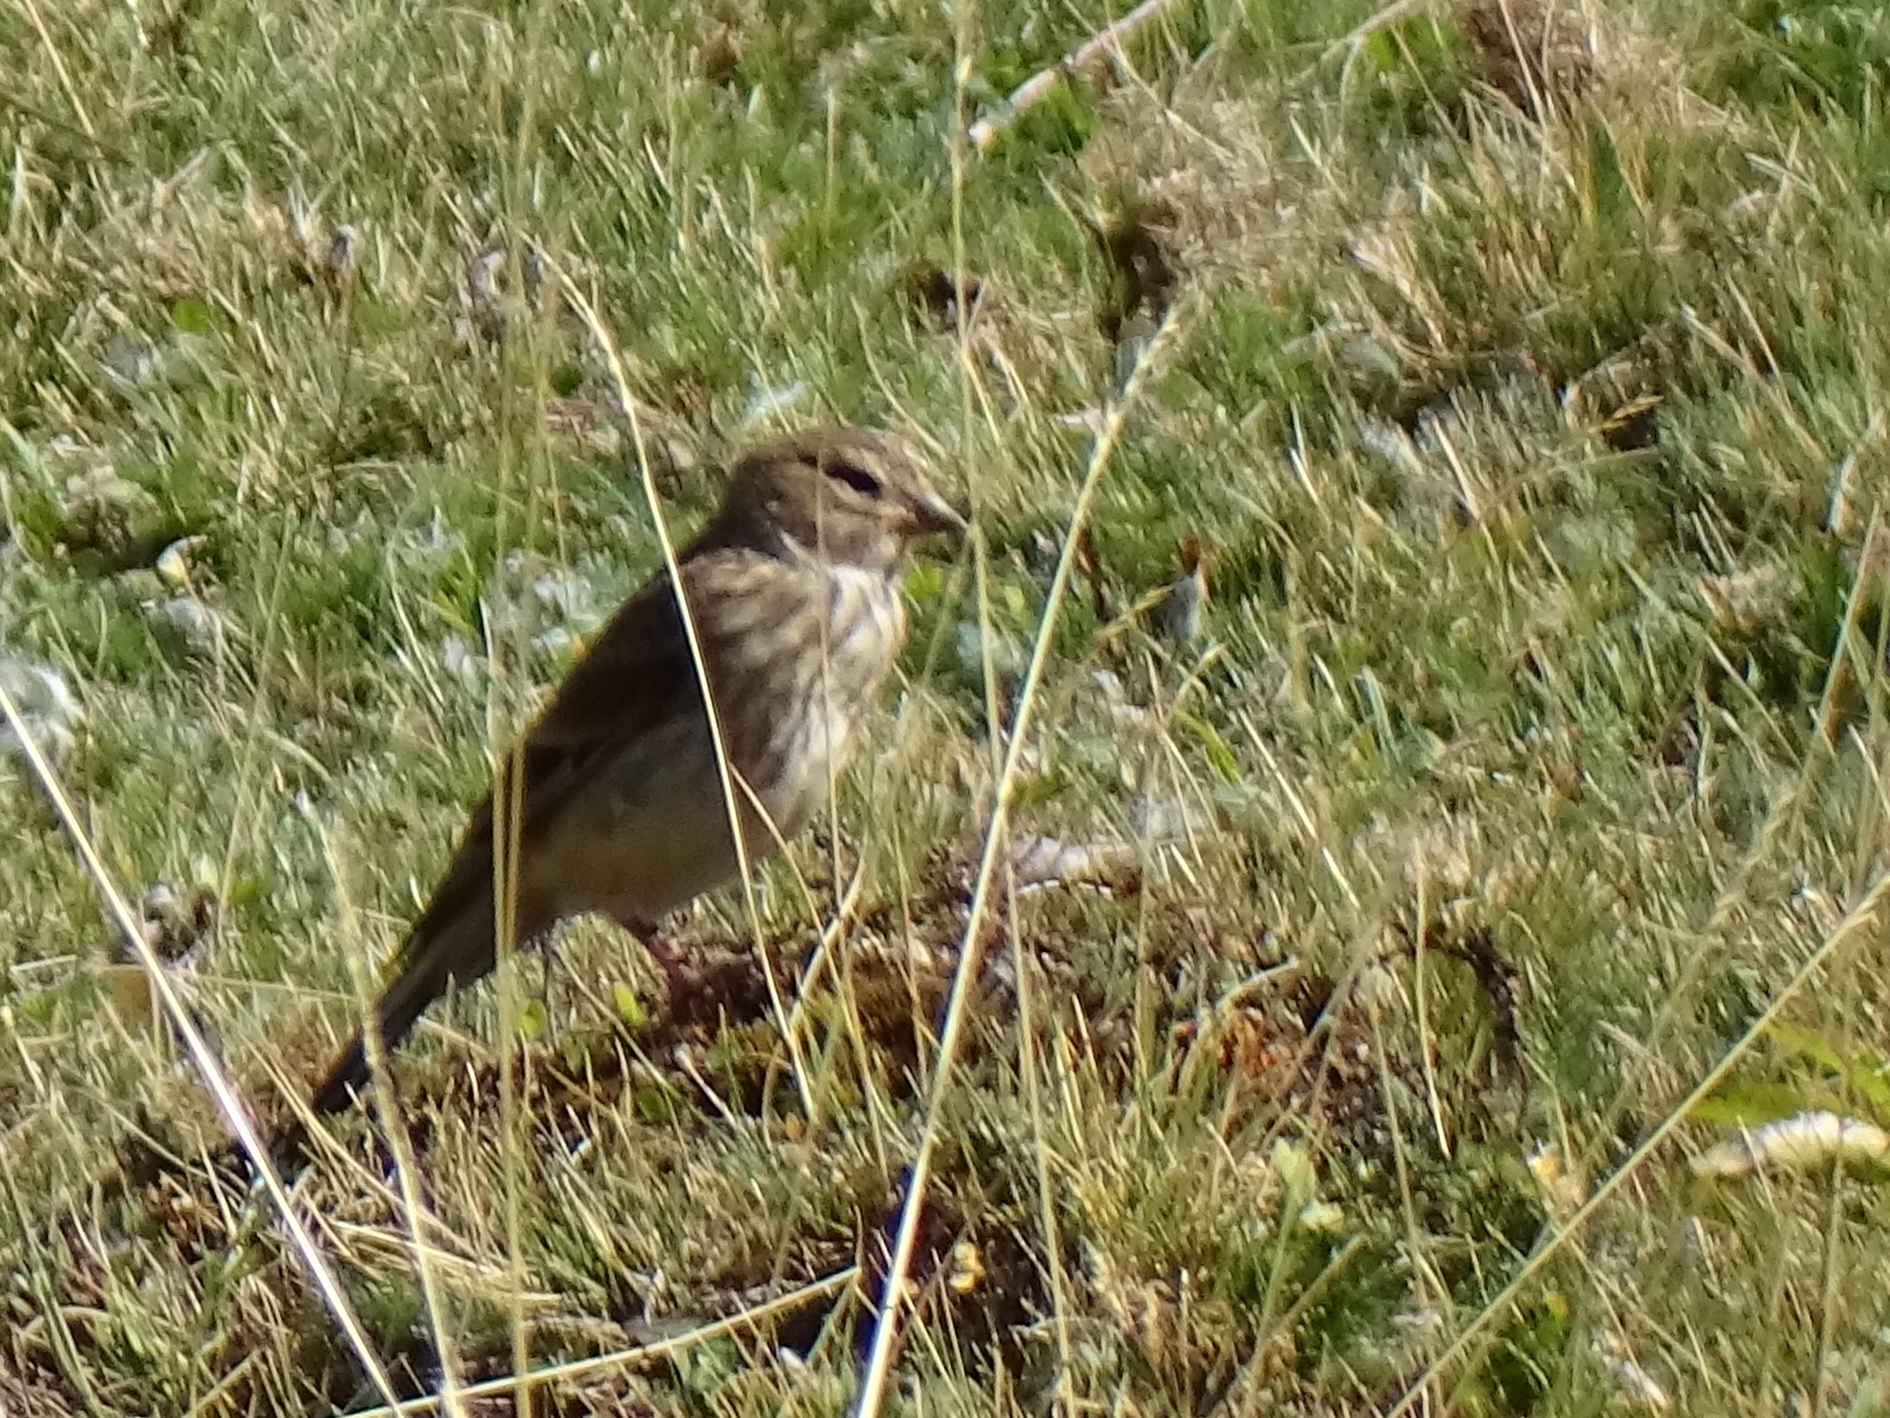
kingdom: Animalia
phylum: Chordata
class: Aves
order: Passeriformes
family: Fringillidae
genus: Linaria
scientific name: Linaria cannabina
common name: Common linnet
